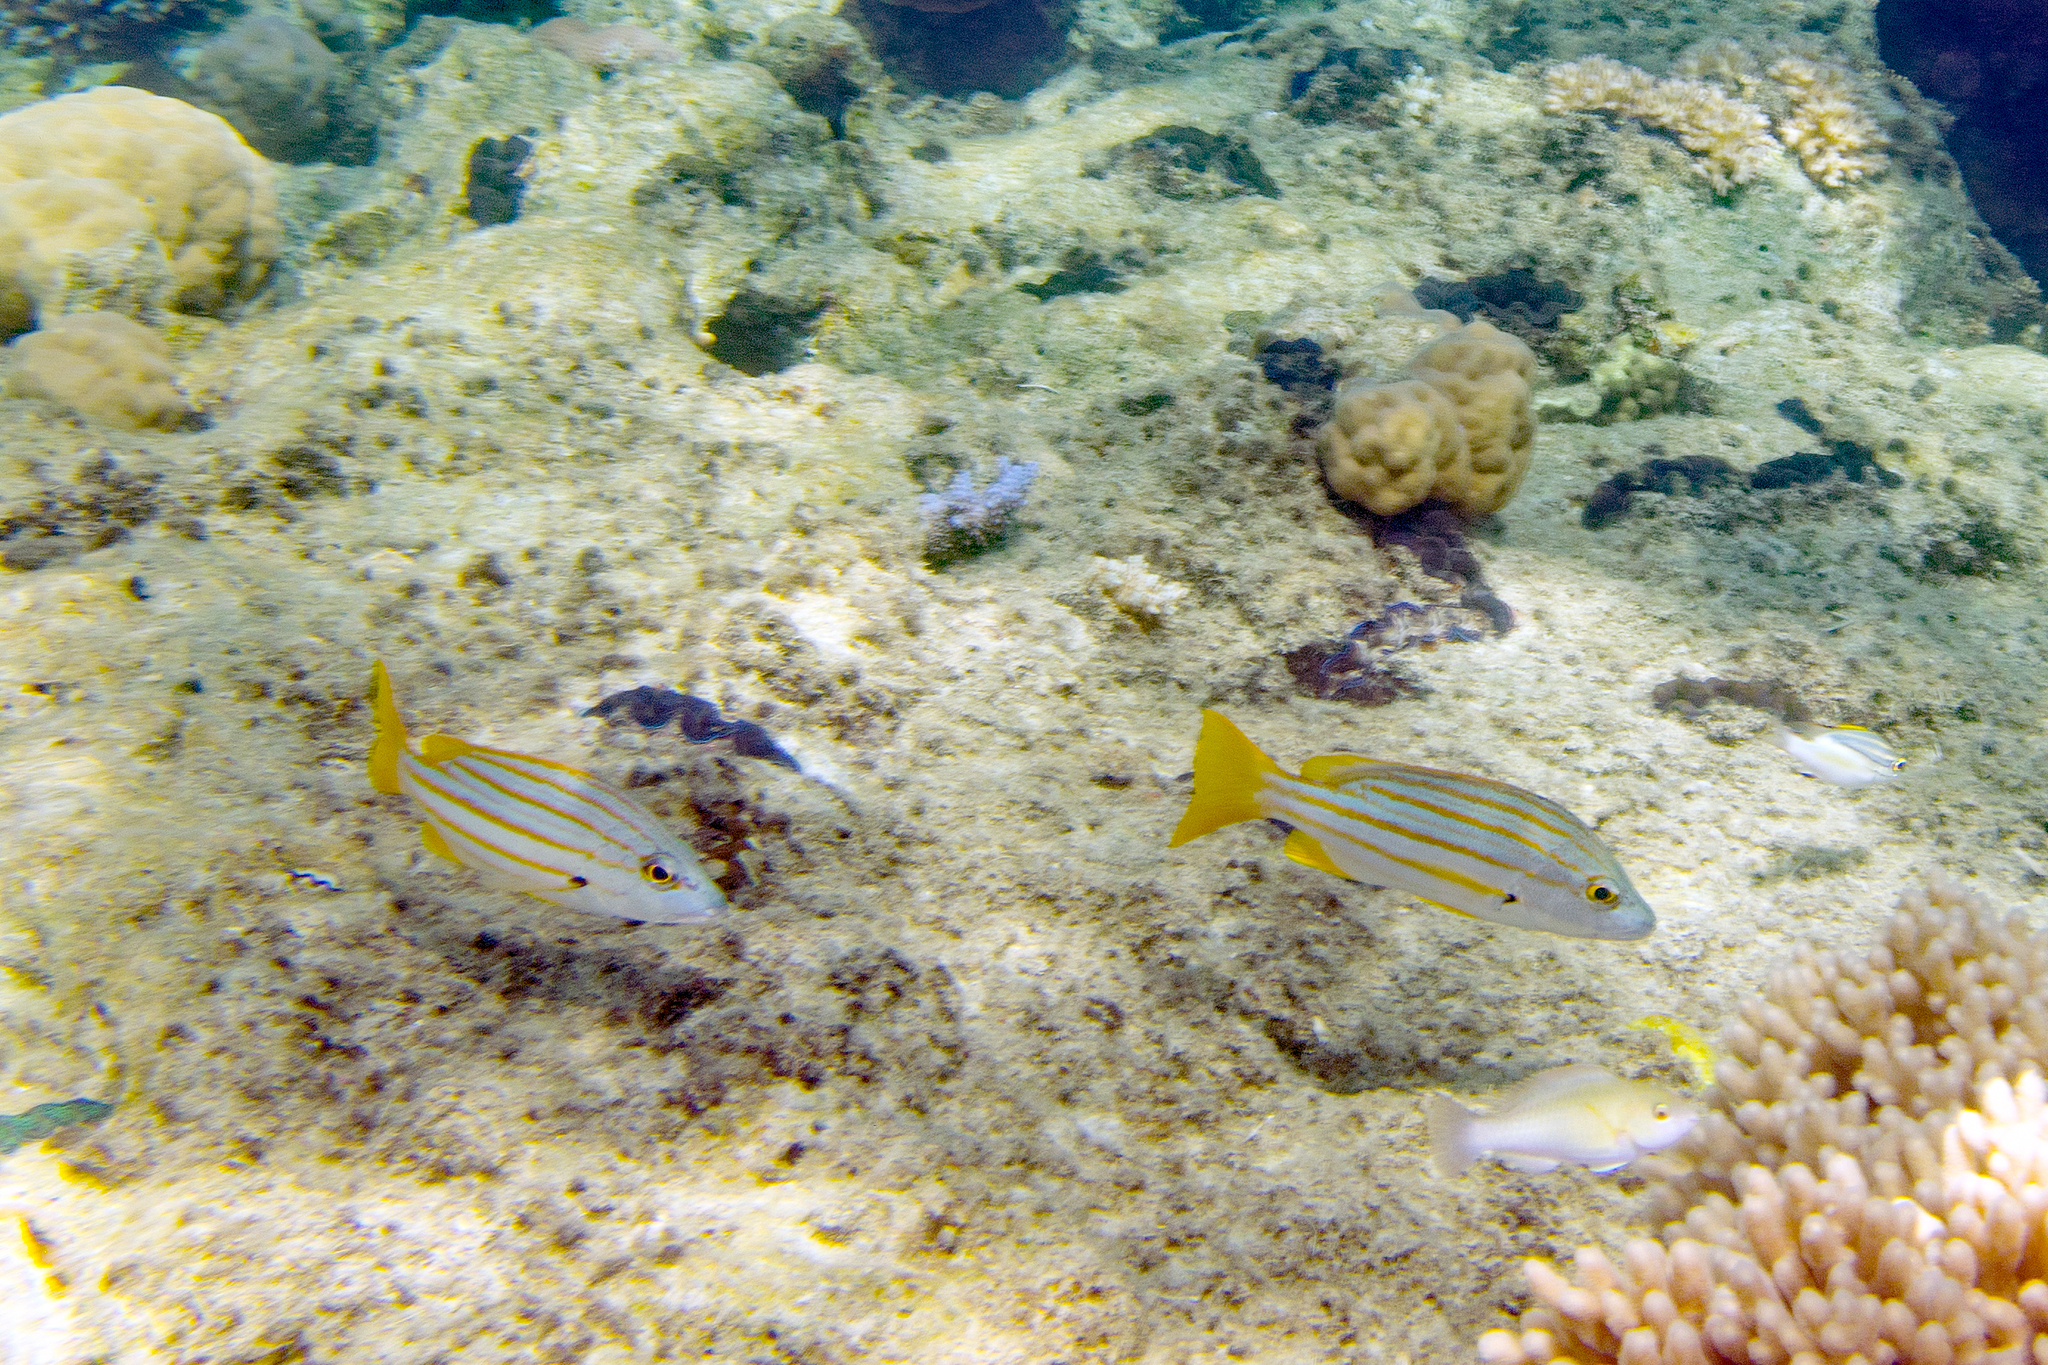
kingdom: Animalia
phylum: Chordata
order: Perciformes
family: Lutjanidae
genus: Lutjanus
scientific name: Lutjanus carponotatus
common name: Spanish flag
